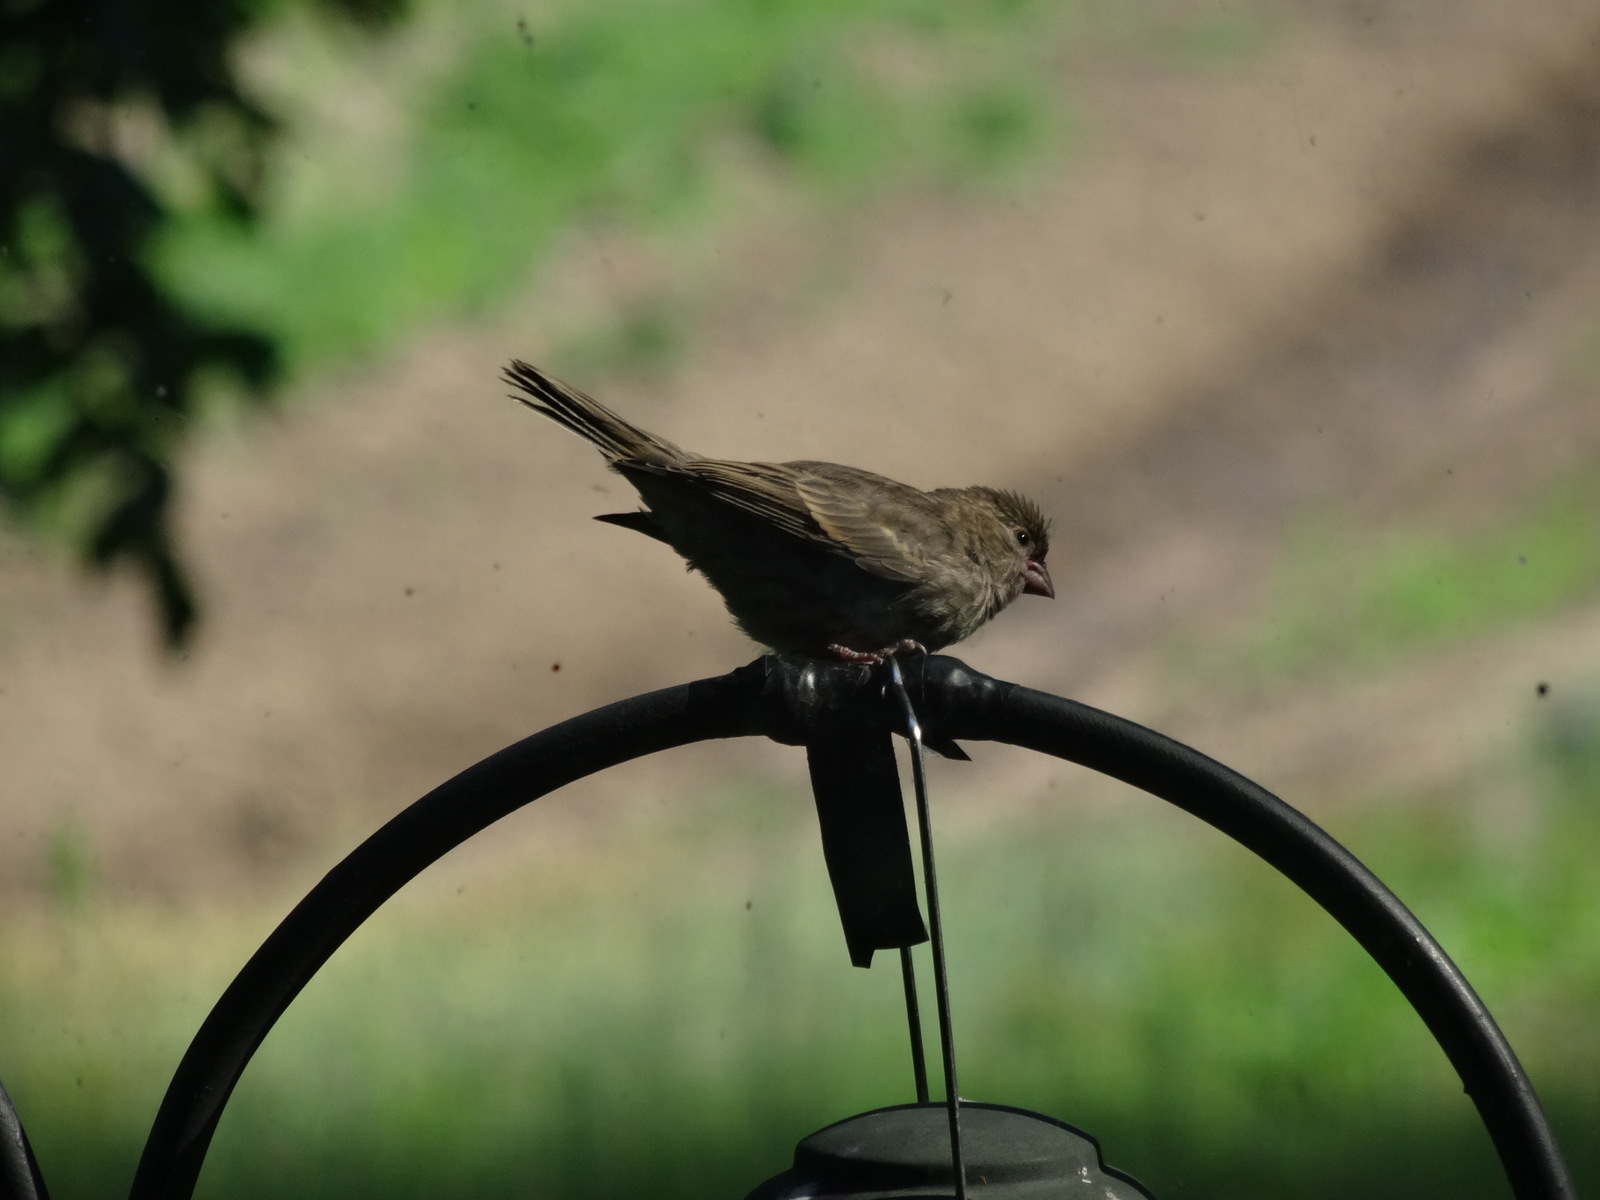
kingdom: Animalia
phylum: Chordata
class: Aves
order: Passeriformes
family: Fringillidae
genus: Haemorhous
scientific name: Haemorhous mexicanus
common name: House finch
